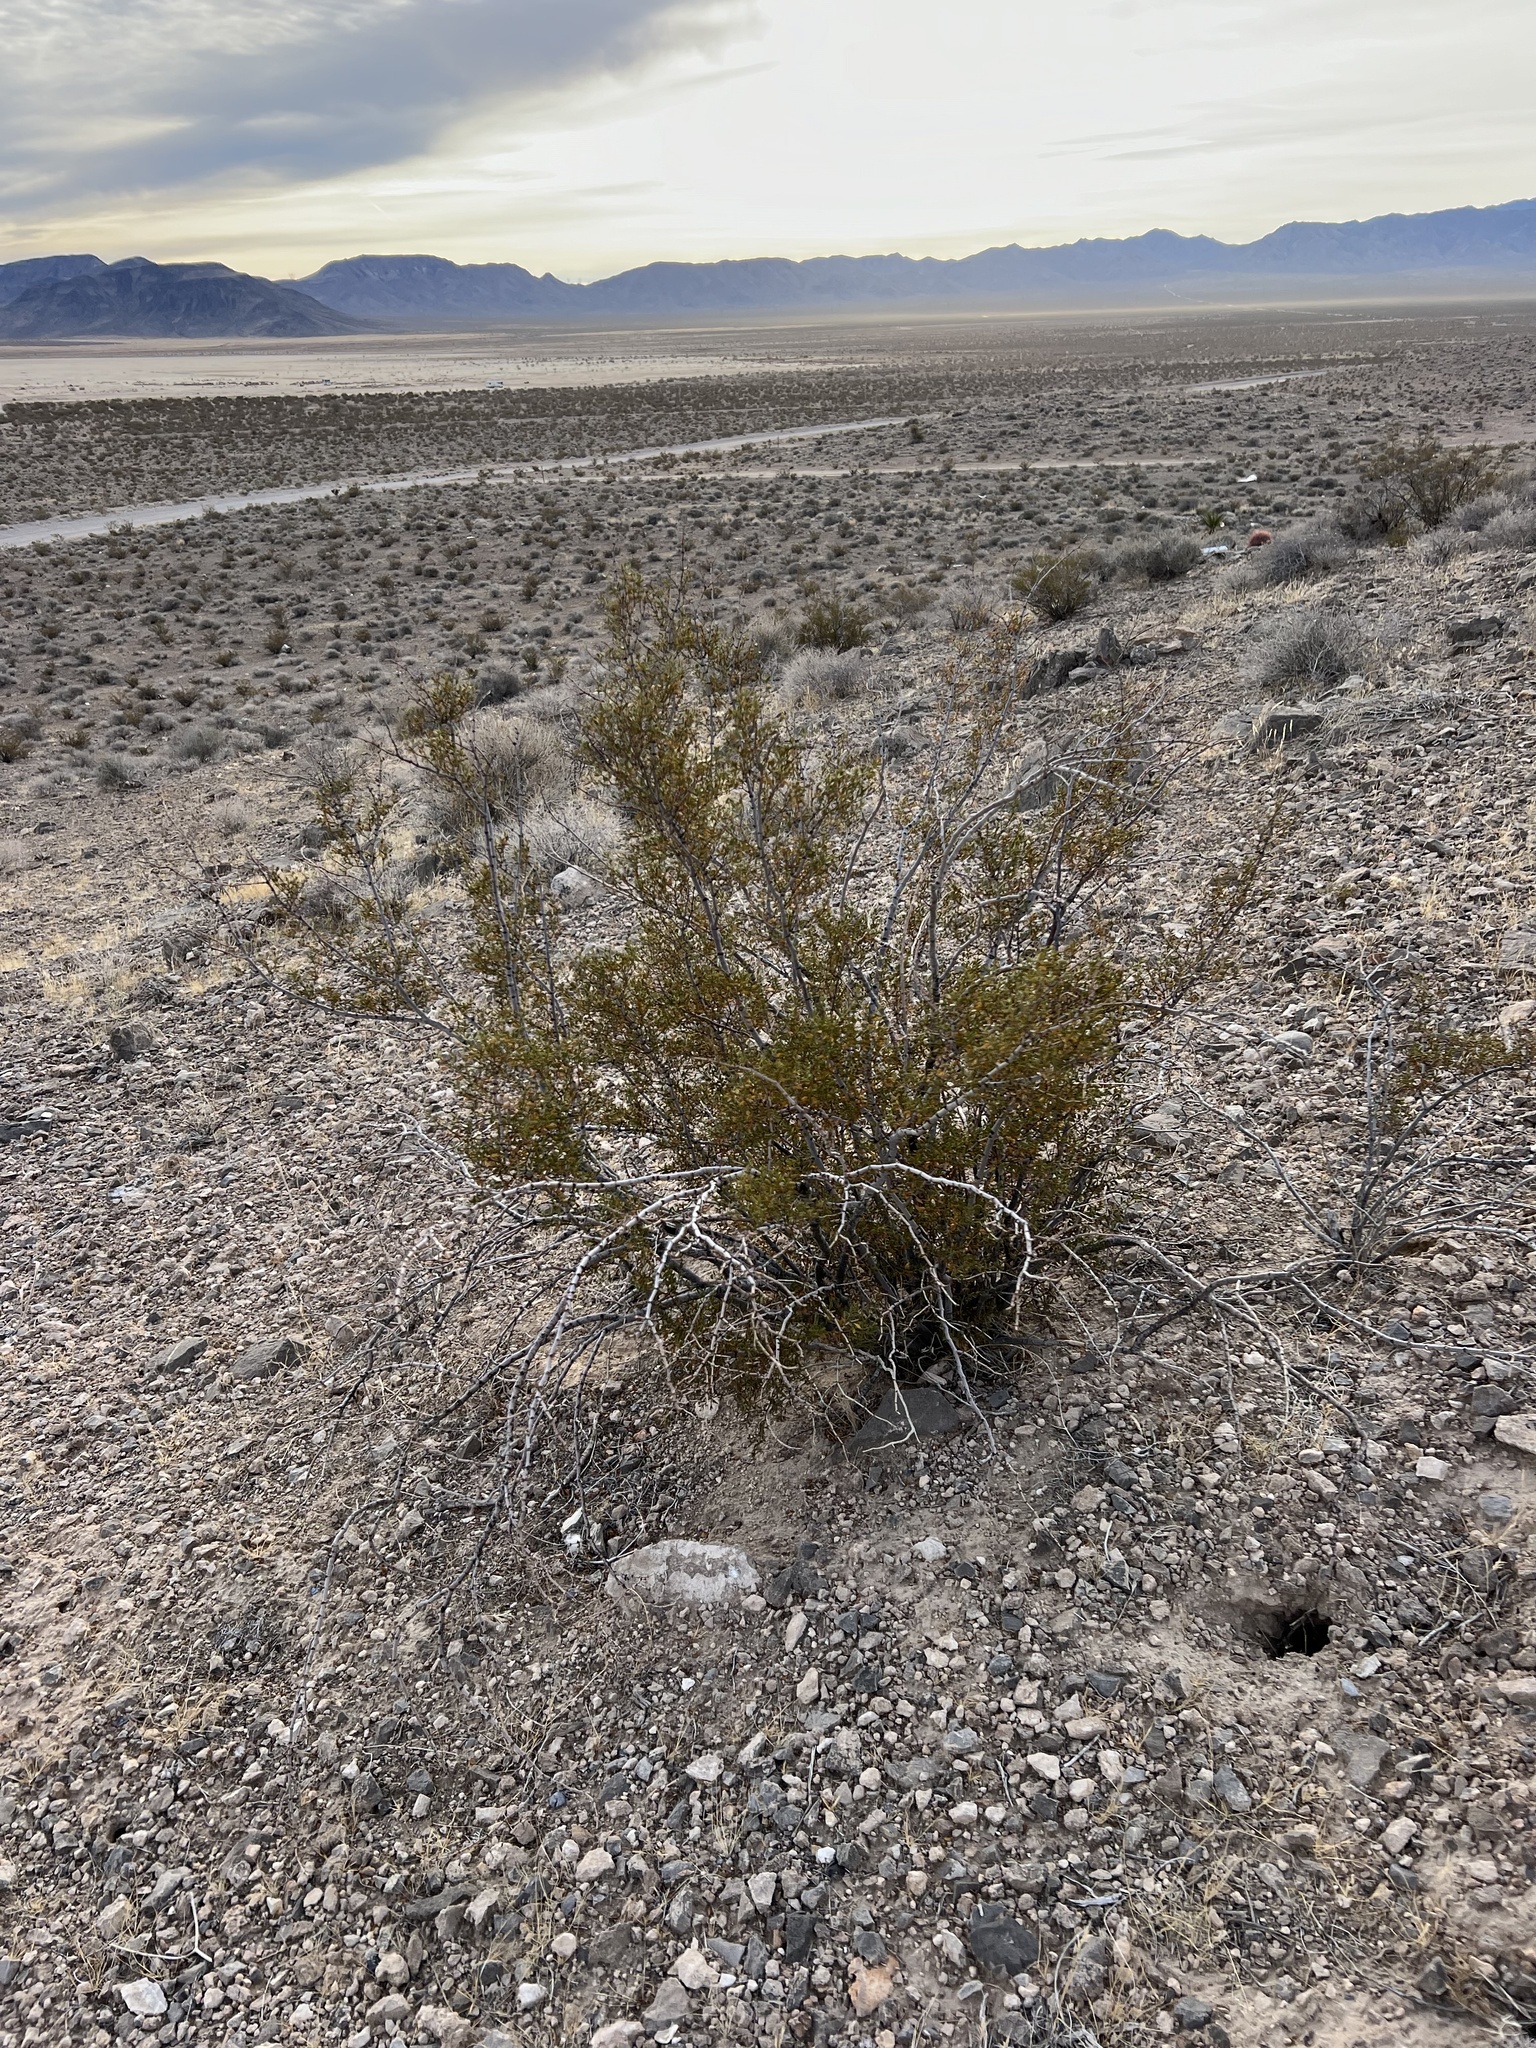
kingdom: Plantae
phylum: Tracheophyta
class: Magnoliopsida
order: Zygophyllales
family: Zygophyllaceae
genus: Larrea
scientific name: Larrea tridentata
